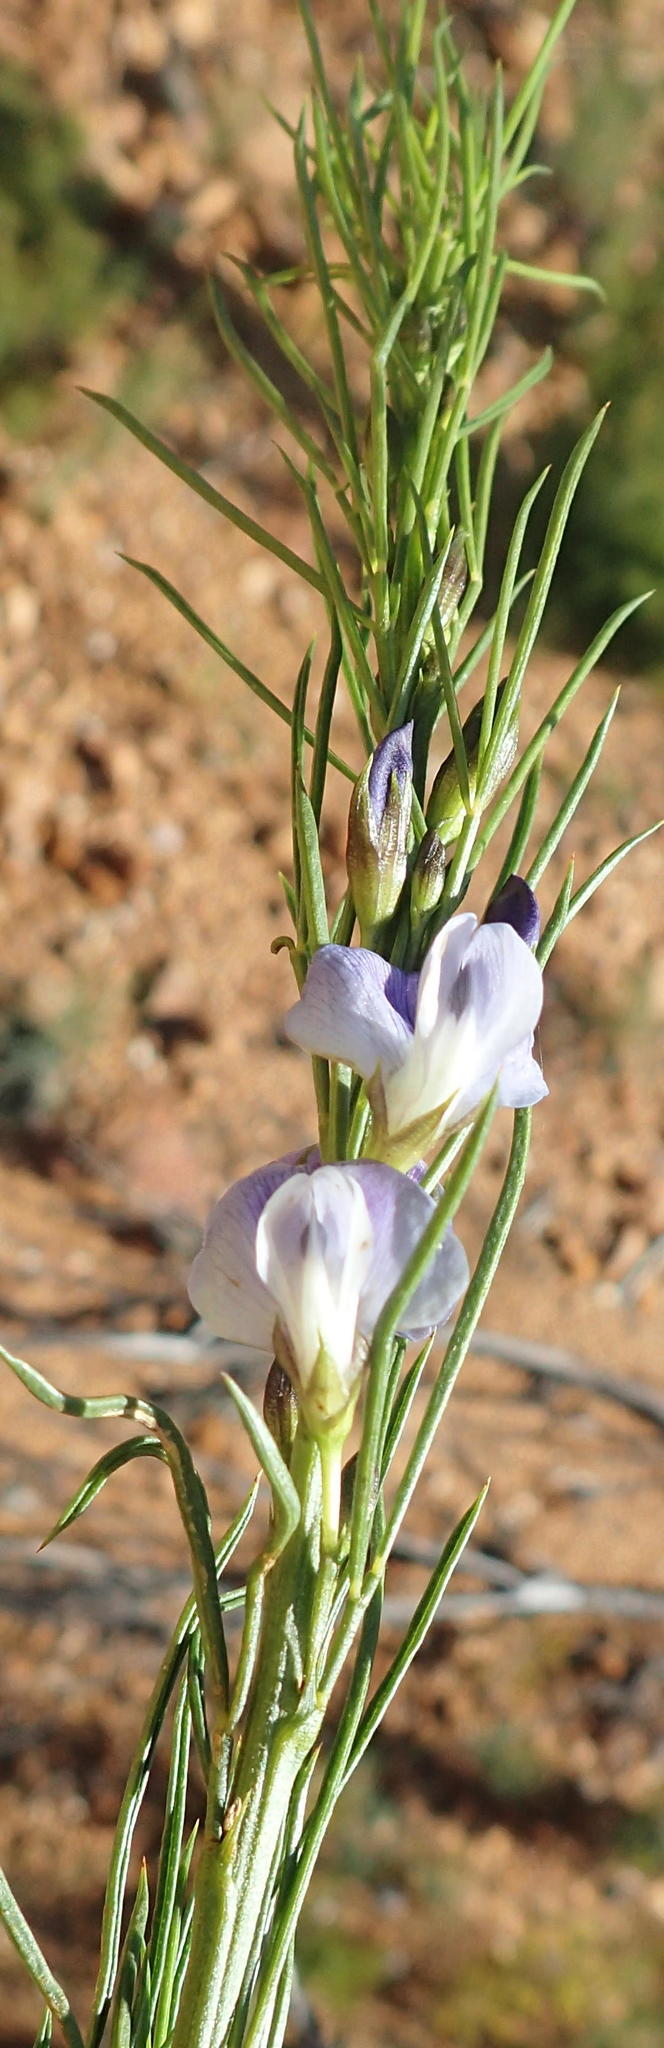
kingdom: Plantae
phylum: Tracheophyta
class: Magnoliopsida
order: Fabales
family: Fabaceae
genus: Psoralea
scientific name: Psoralea diturnerae
